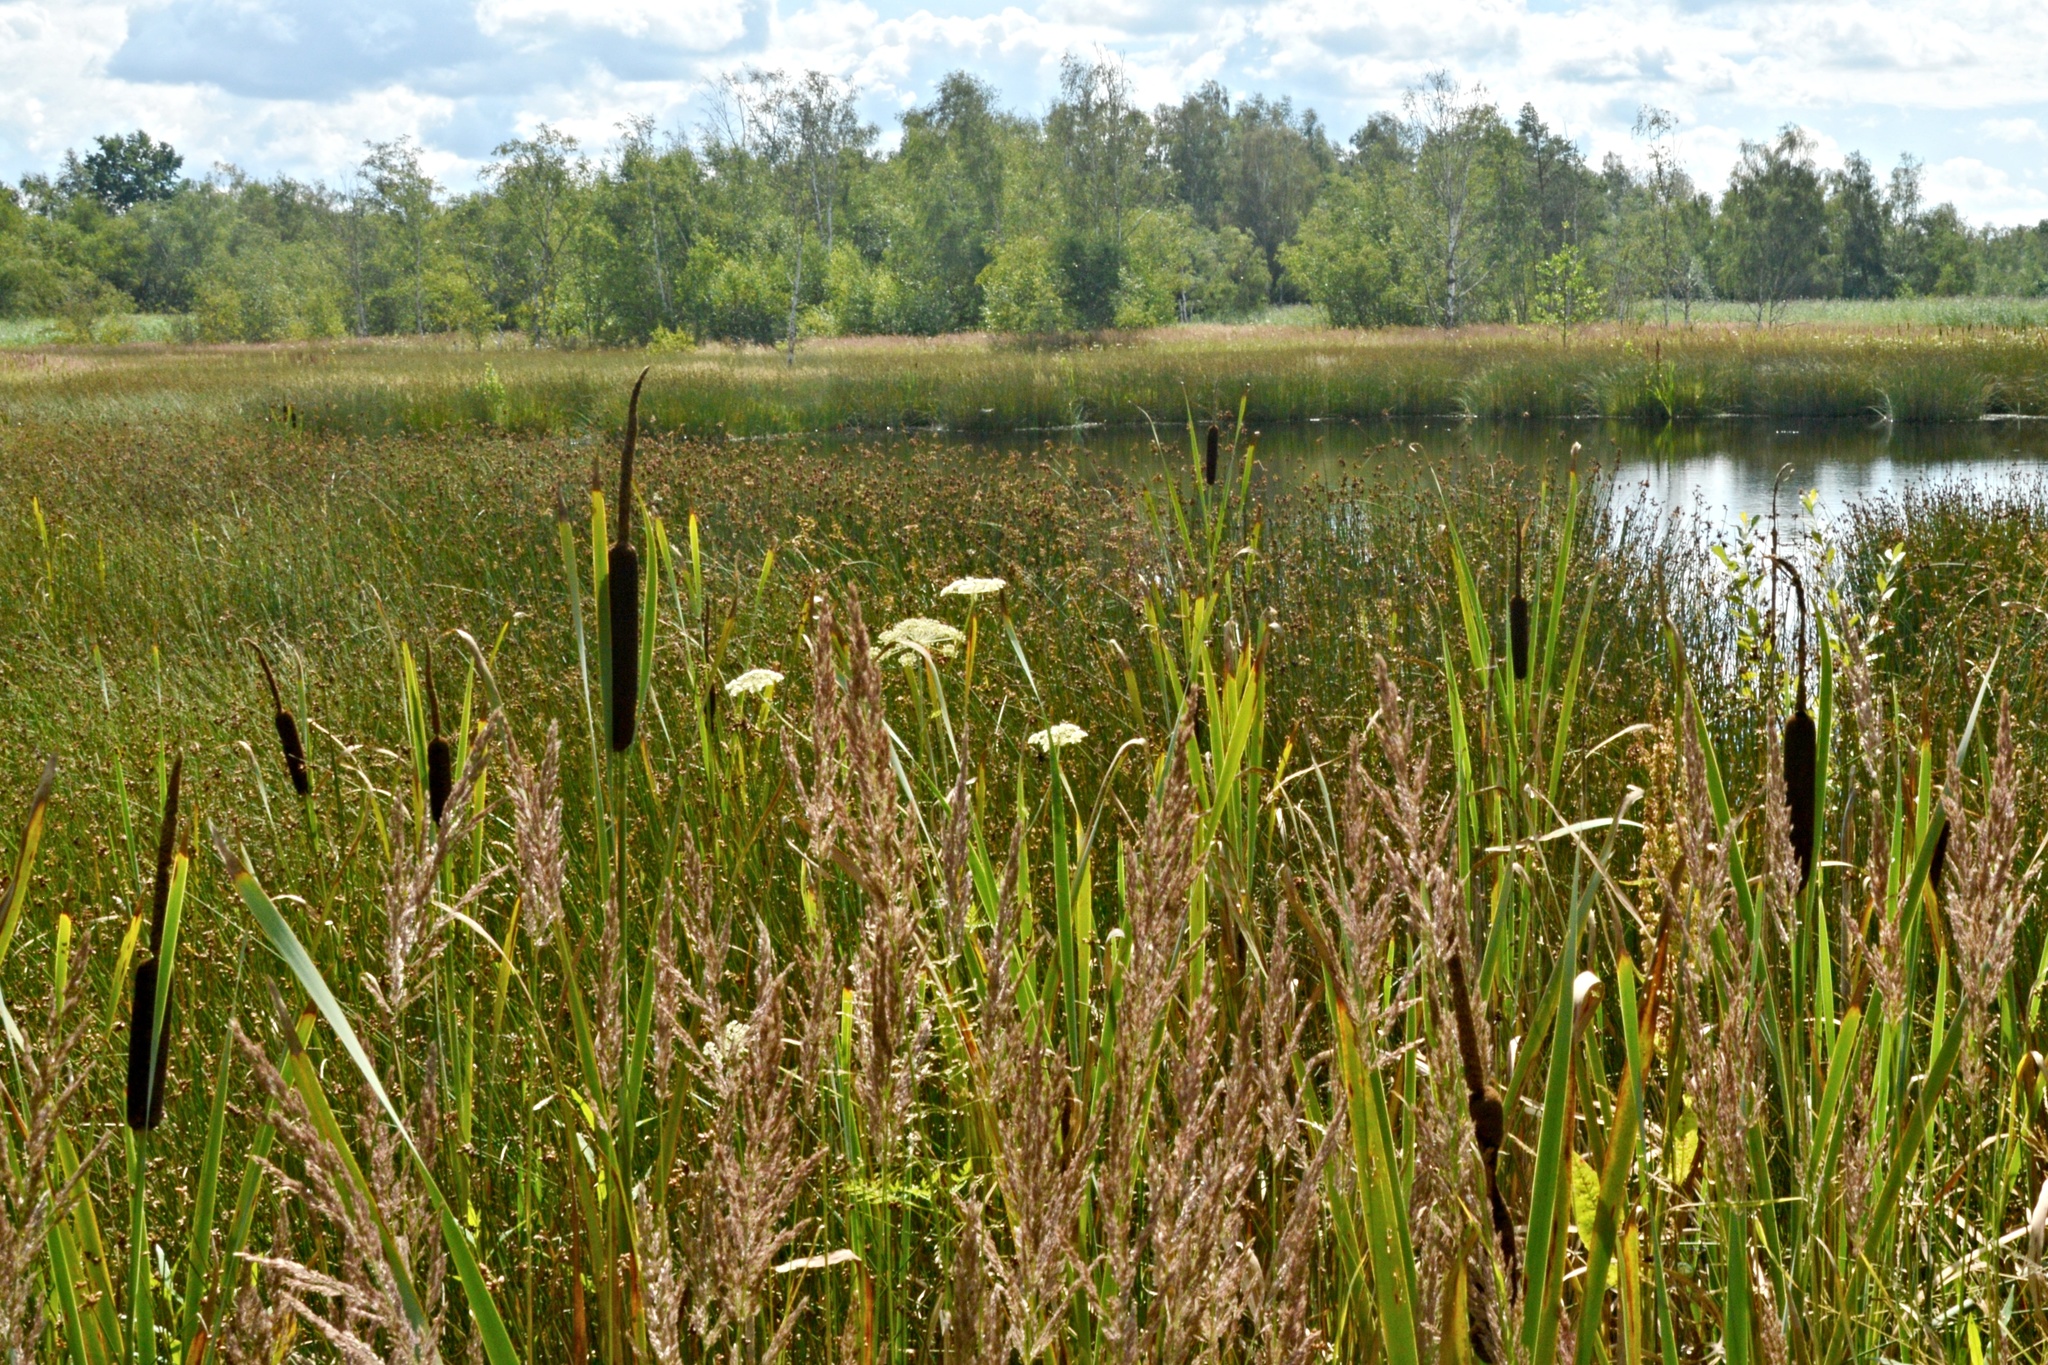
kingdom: Plantae
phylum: Tracheophyta
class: Liliopsida
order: Poales
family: Typhaceae
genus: Typha
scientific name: Typha latifolia
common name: Broadleaf cattail
